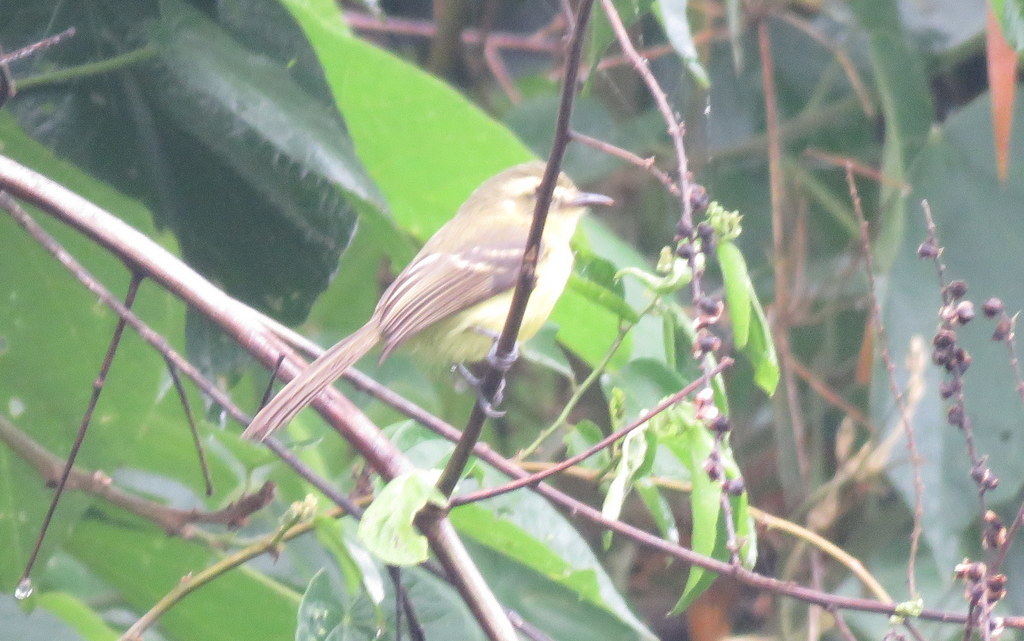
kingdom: Animalia
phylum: Chordata
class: Aves
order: Passeriformes
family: Tyrannidae
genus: Capsiempis
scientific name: Capsiempis flaveola
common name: Yellow tyrannulet
